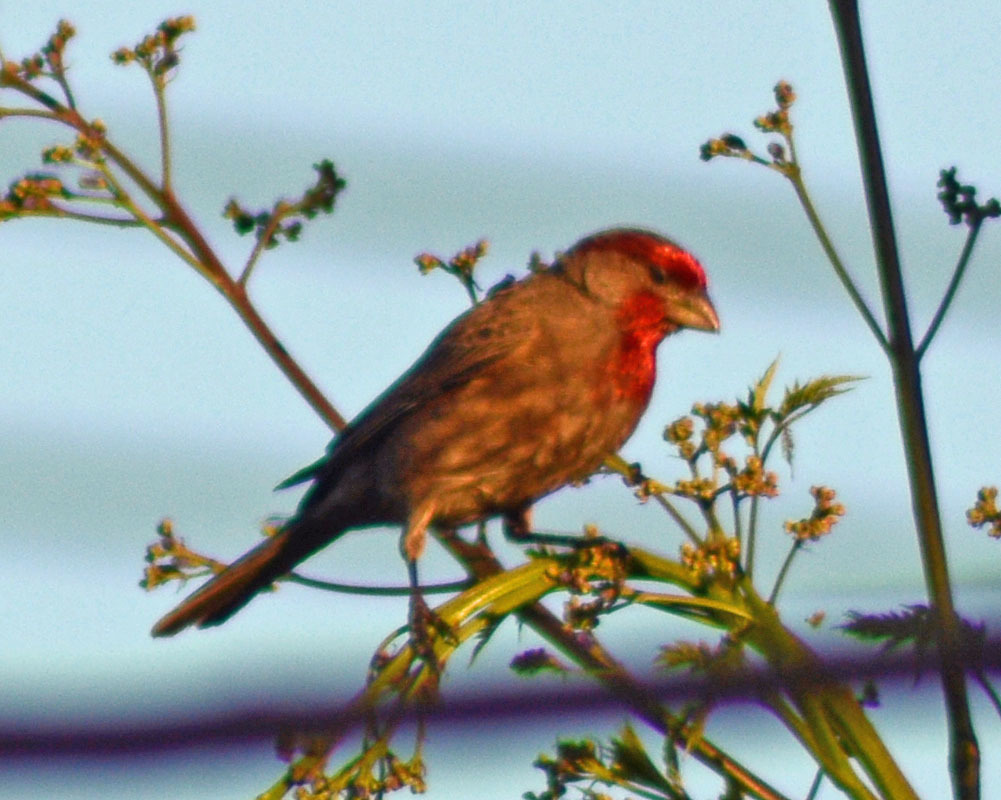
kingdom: Animalia
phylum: Chordata
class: Aves
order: Passeriformes
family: Fringillidae
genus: Haemorhous
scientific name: Haemorhous mexicanus
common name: House finch
